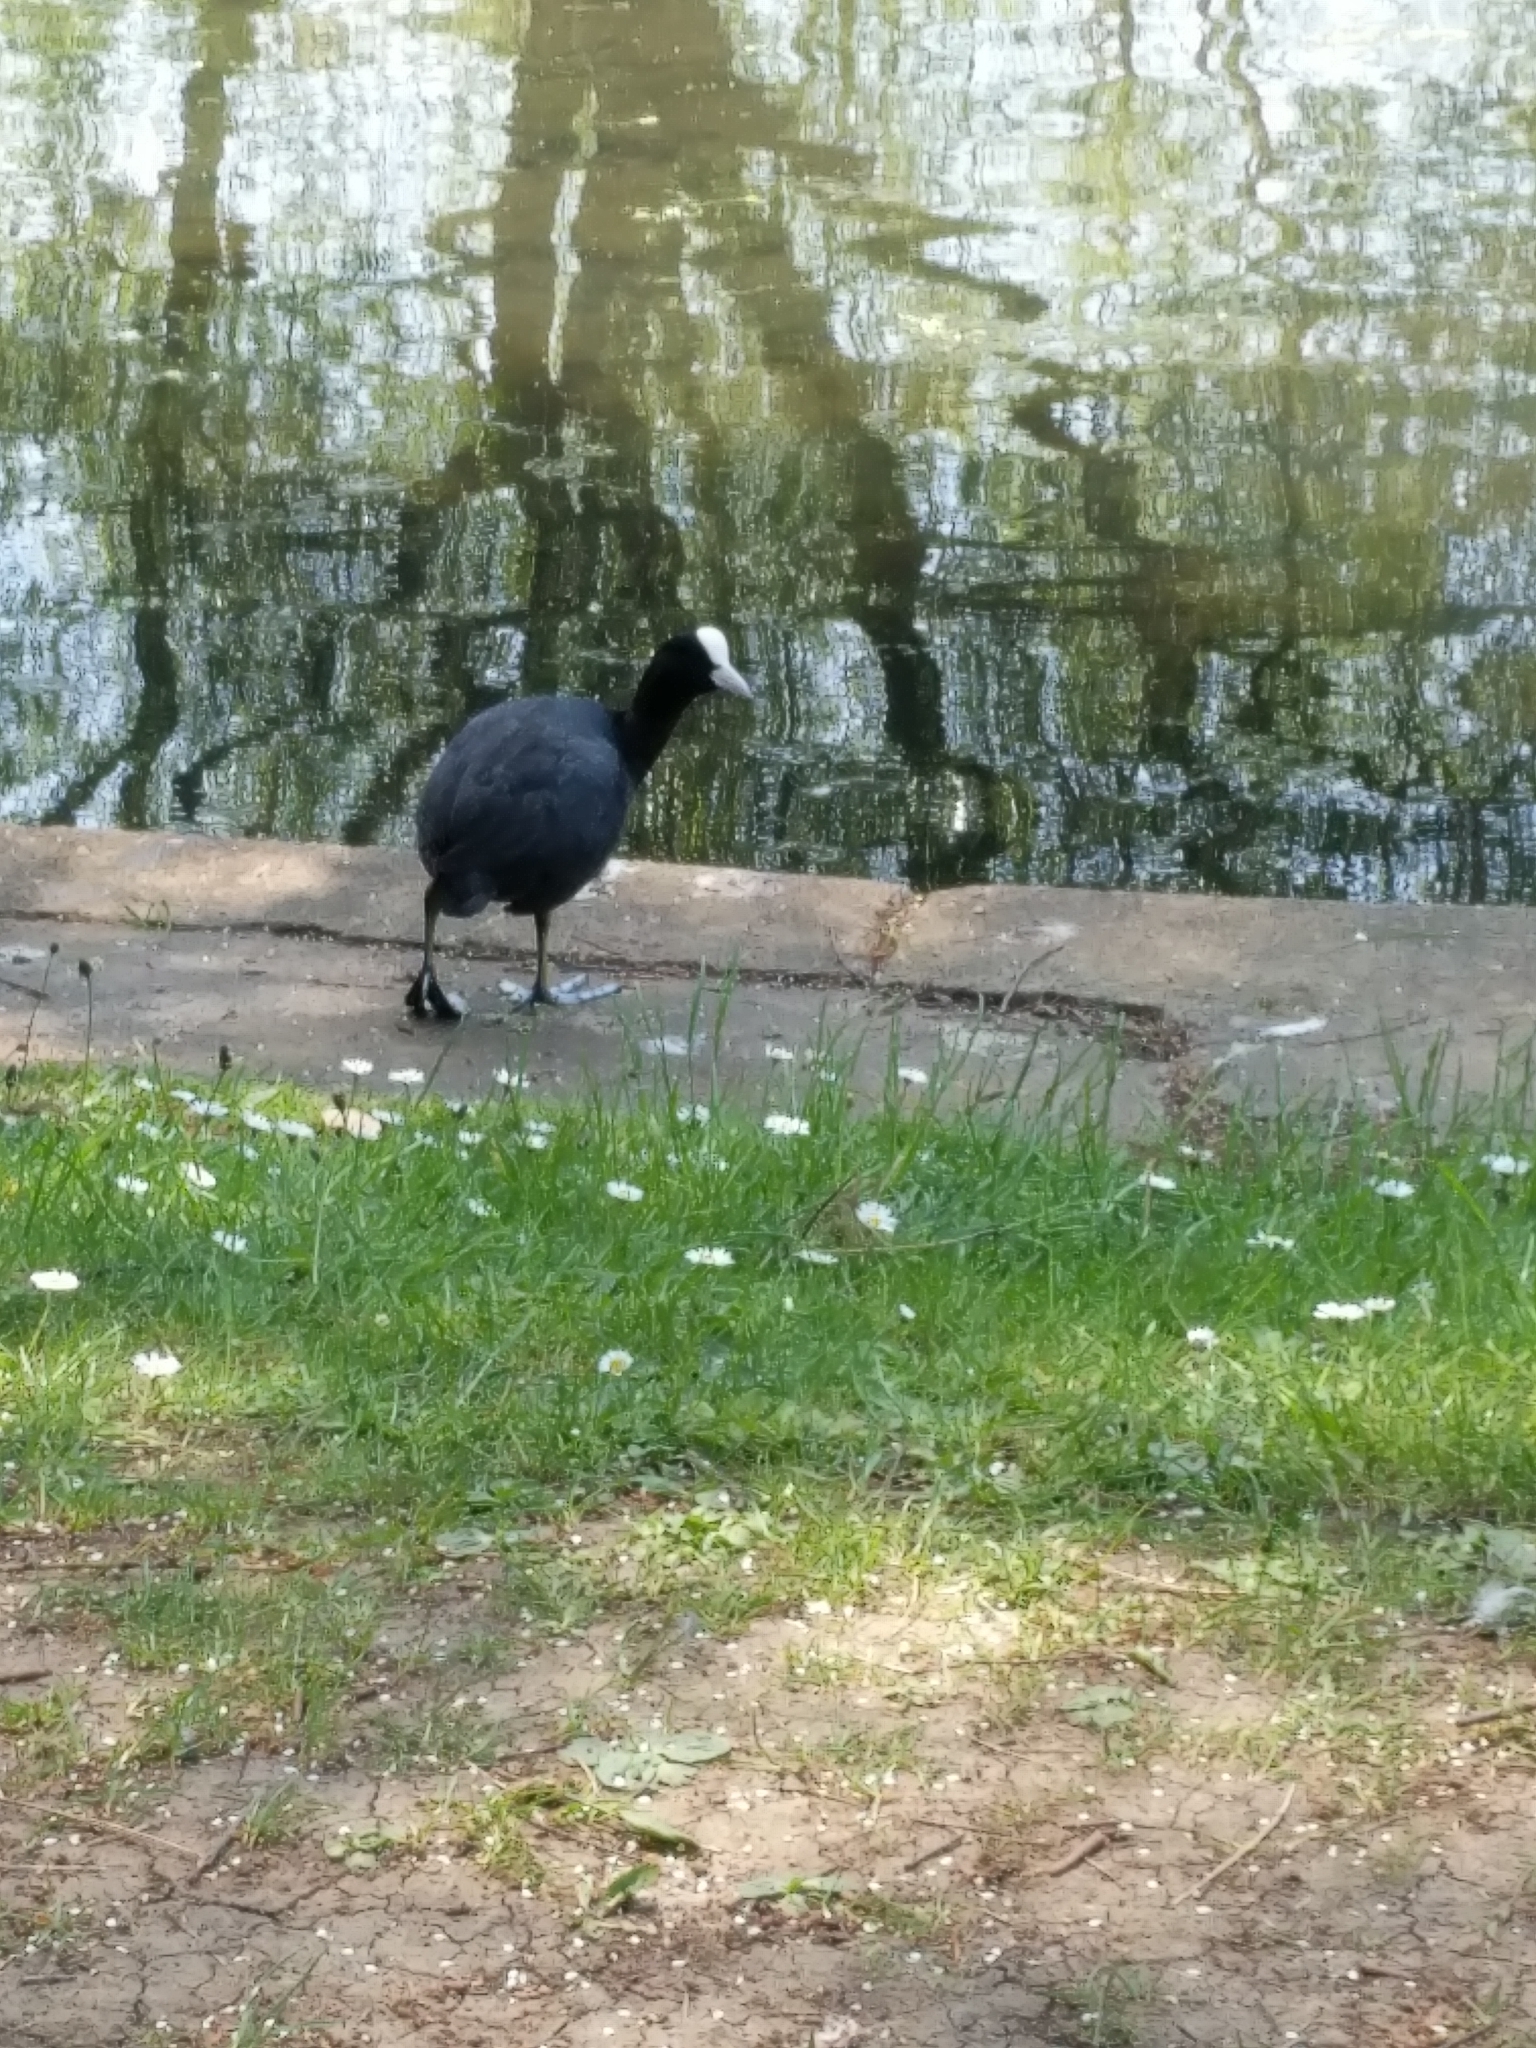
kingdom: Animalia
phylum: Chordata
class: Aves
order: Gruiformes
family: Rallidae
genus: Fulica
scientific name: Fulica atra
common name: Eurasian coot
